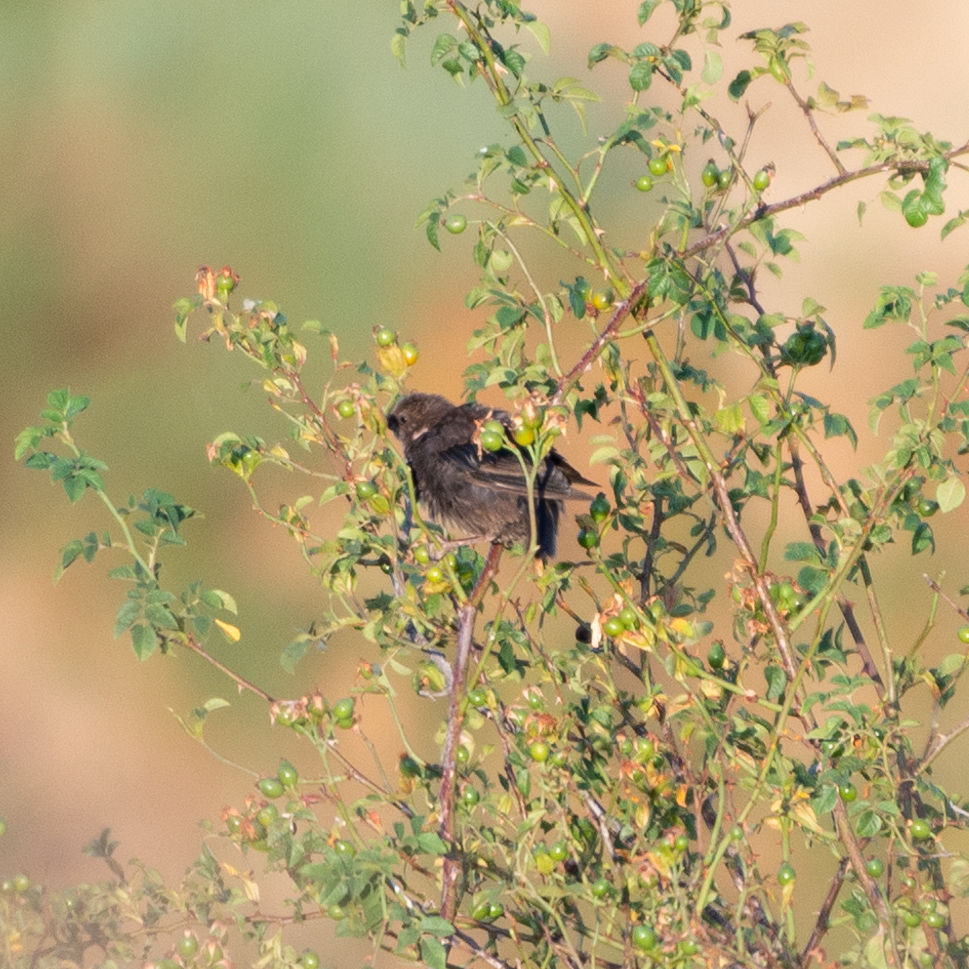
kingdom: Animalia
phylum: Chordata
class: Aves
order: Passeriformes
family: Sturnidae
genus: Sturnus
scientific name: Sturnus unicolor
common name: Spotless starling
